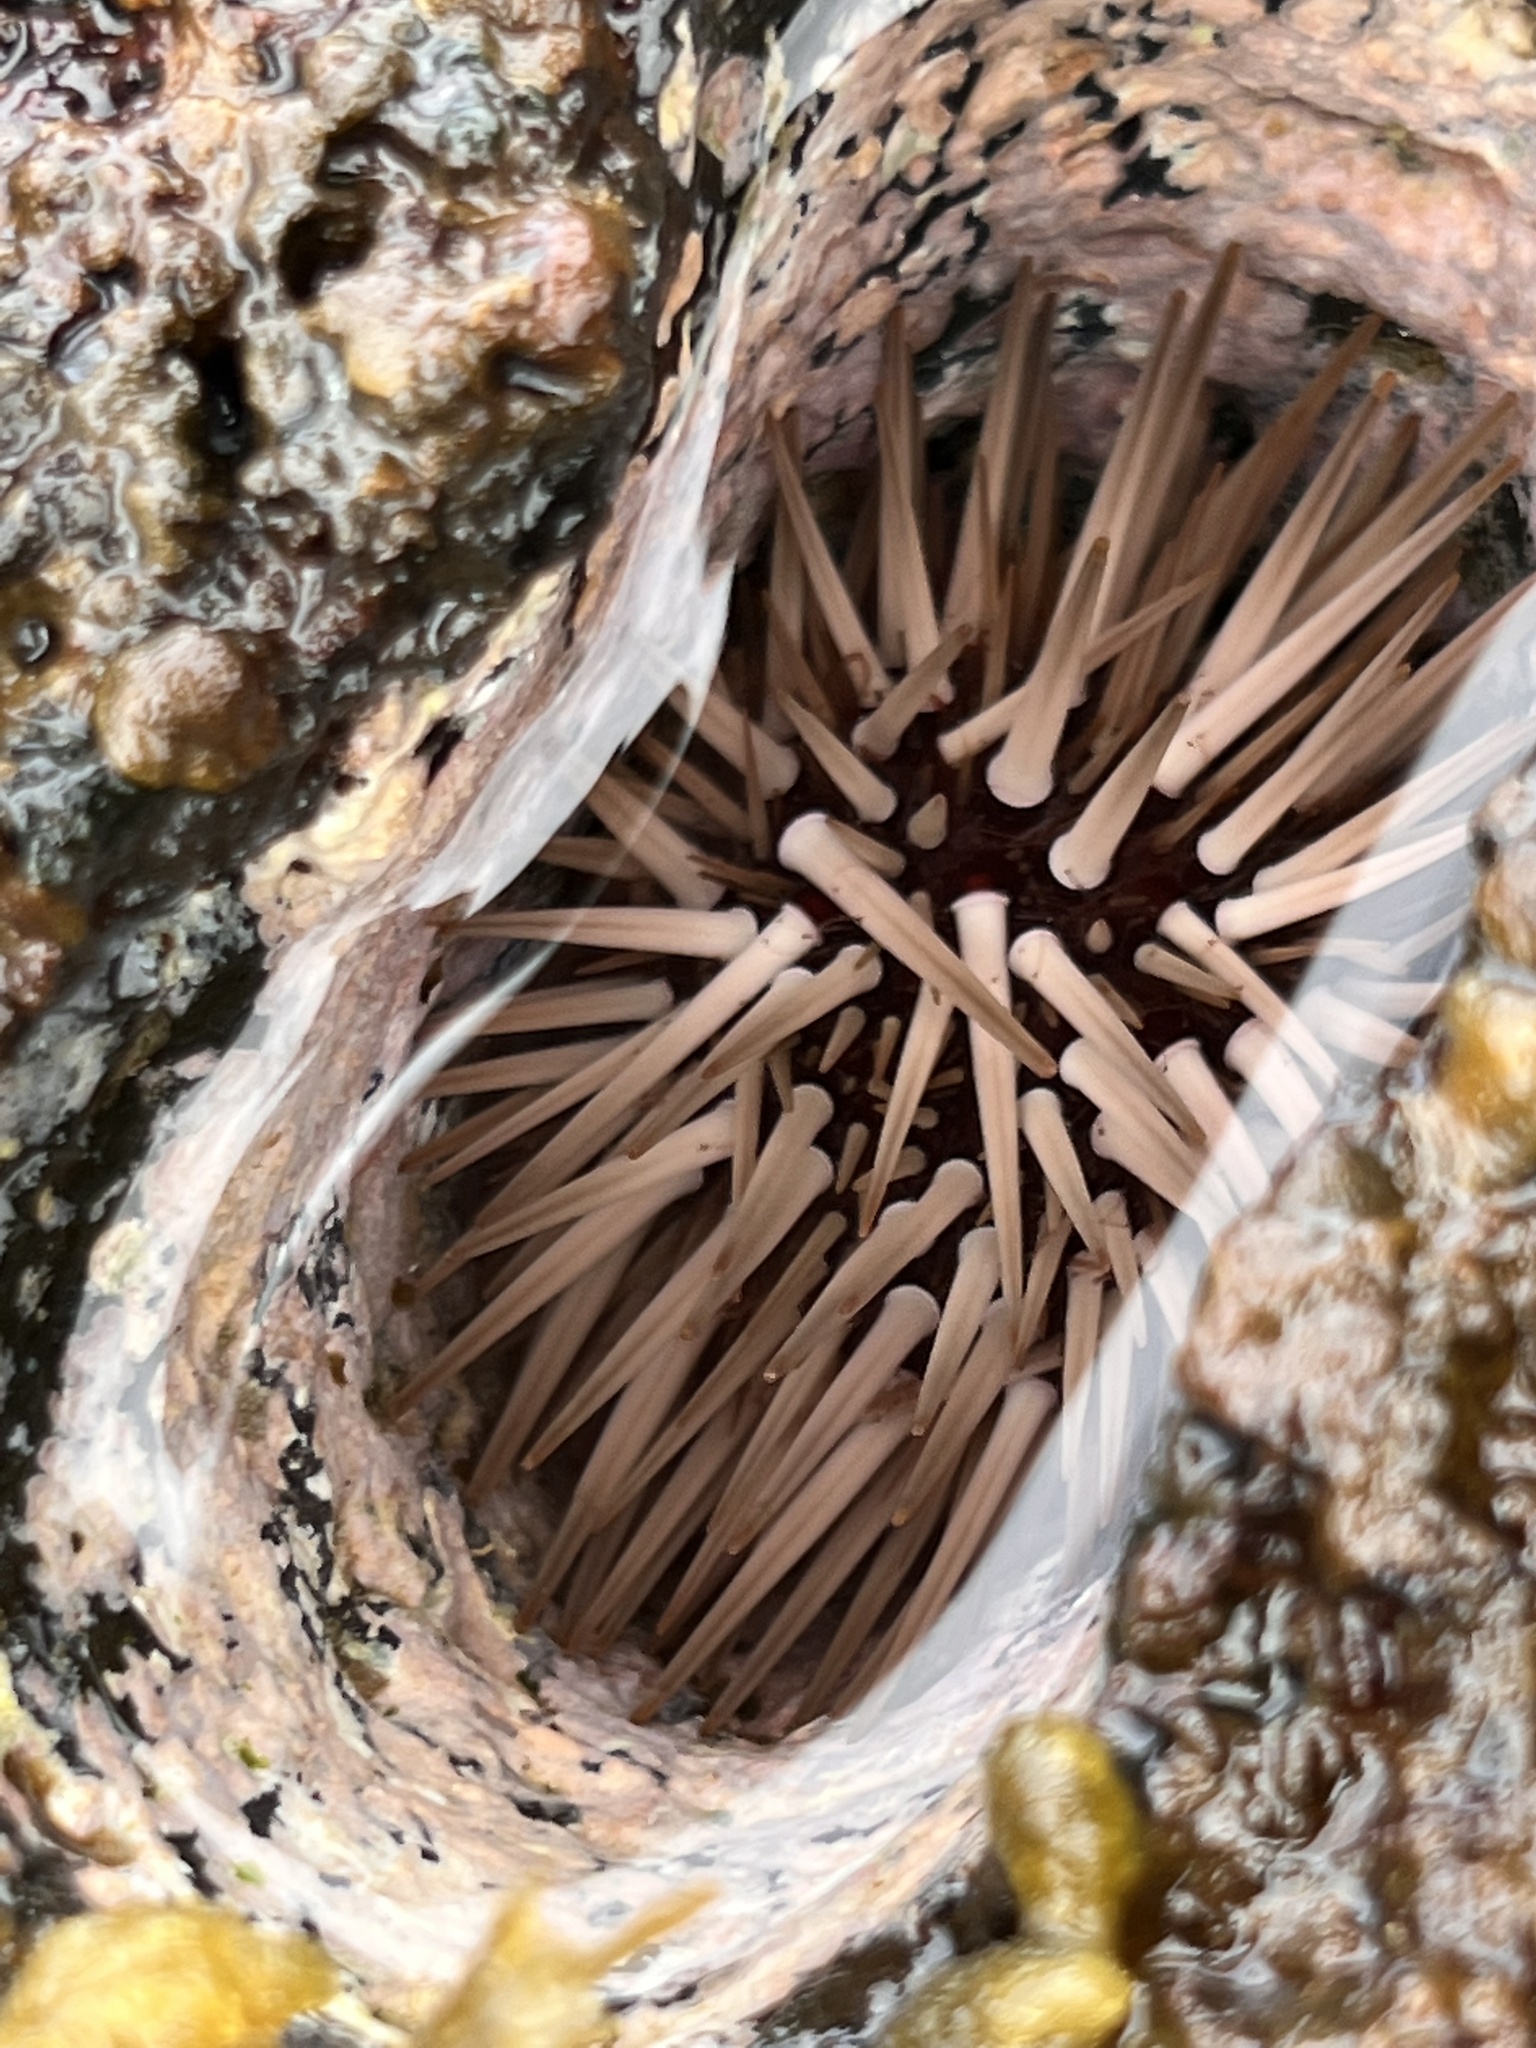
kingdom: Animalia
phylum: Echinodermata
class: Echinoidea
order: Camarodonta
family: Echinometridae
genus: Echinometra
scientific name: Echinometra mathaei
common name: Rock-boring urchin
